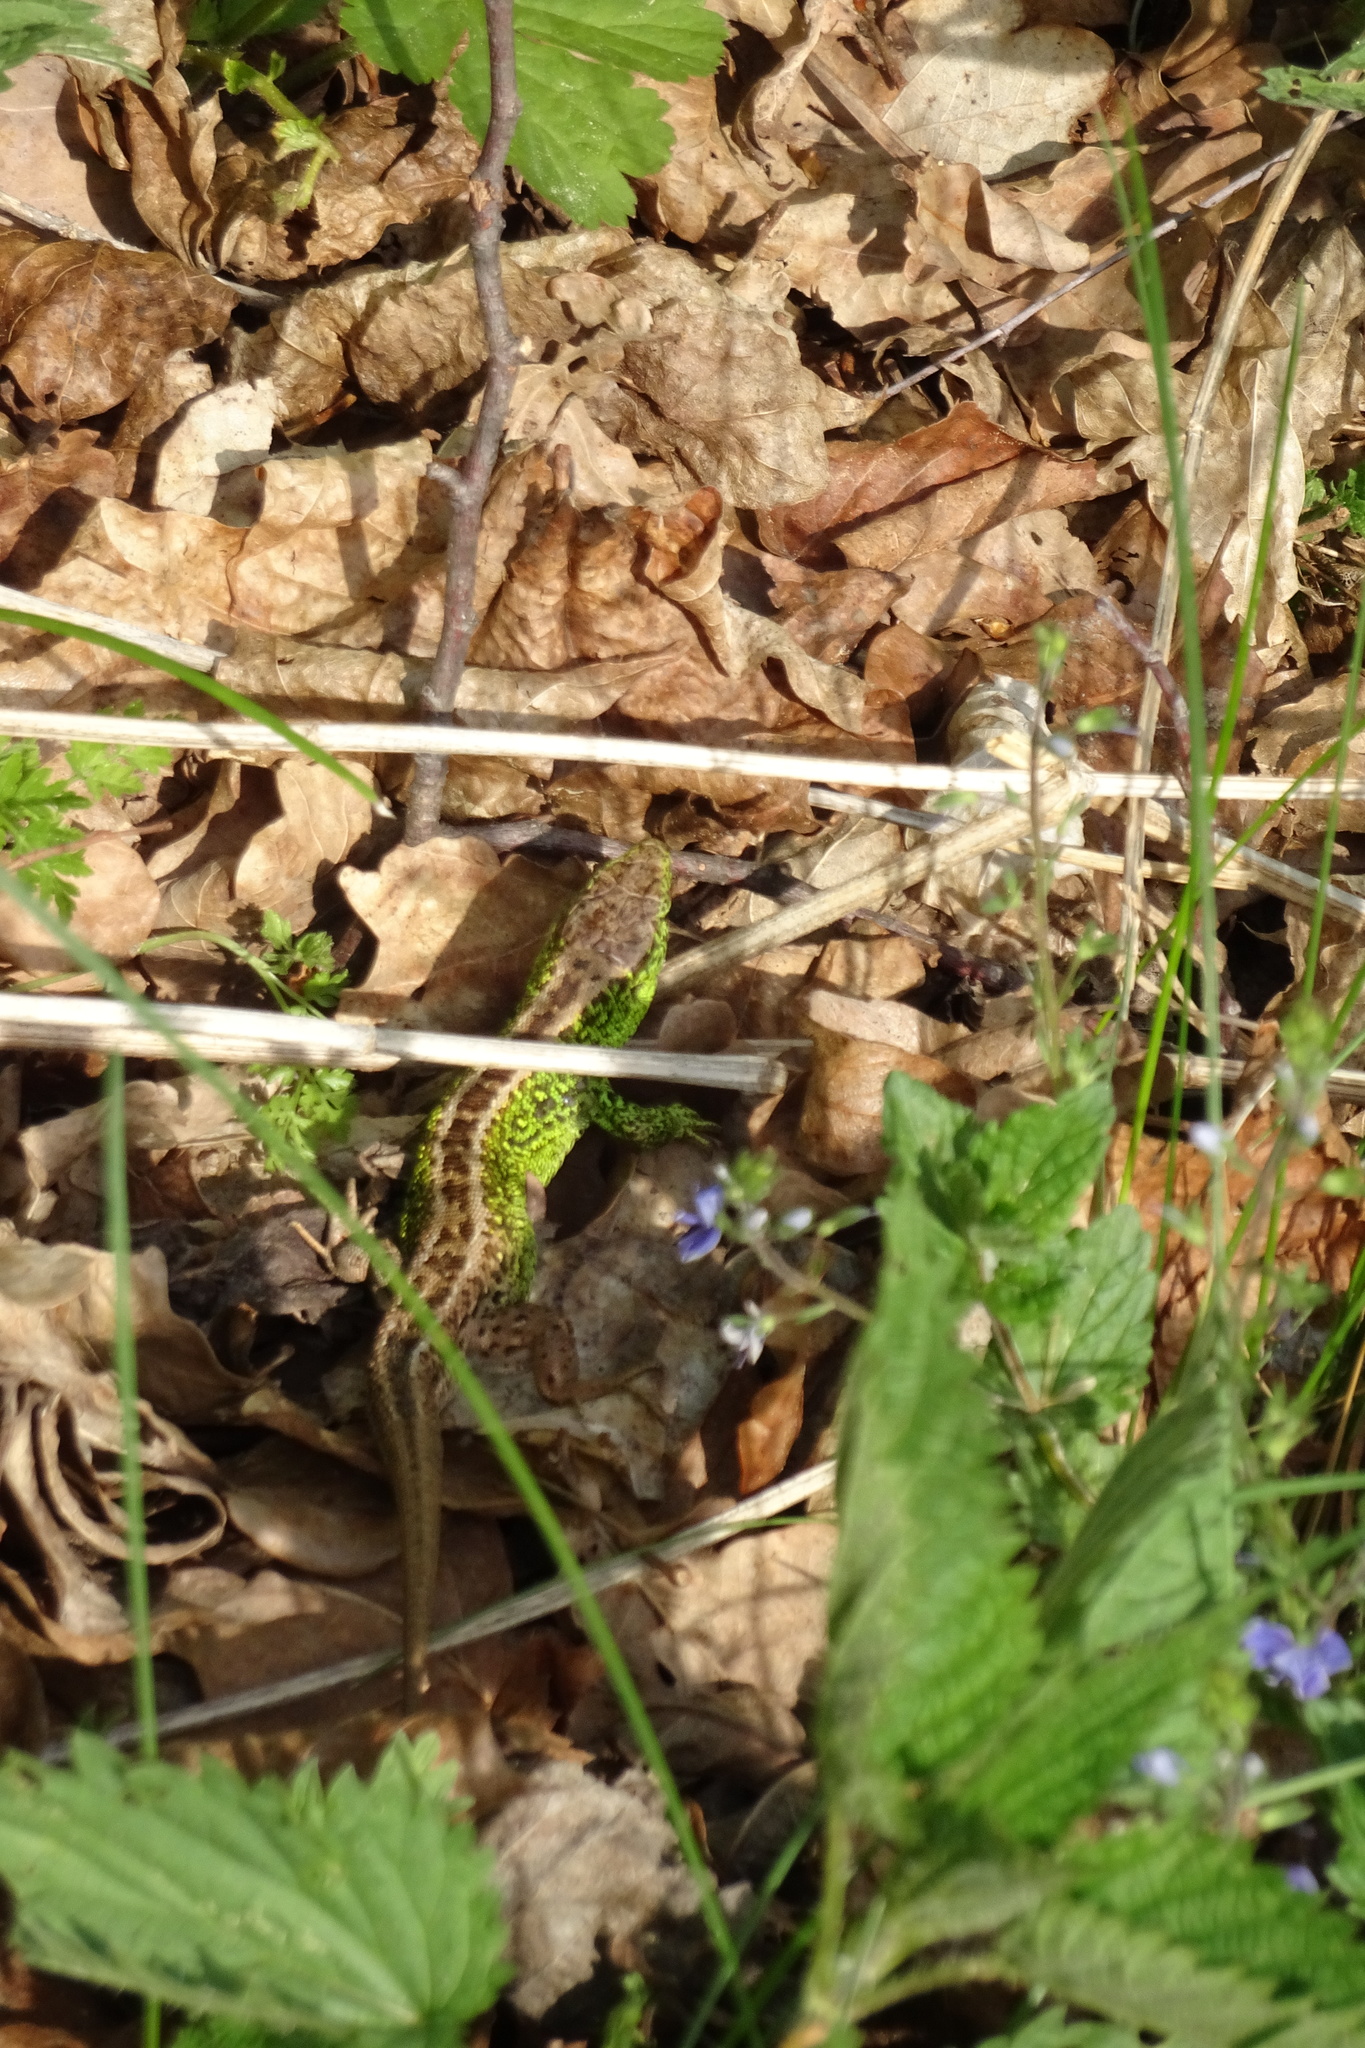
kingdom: Animalia
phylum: Chordata
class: Squamata
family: Lacertidae
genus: Lacerta
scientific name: Lacerta agilis
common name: Sand lizard
